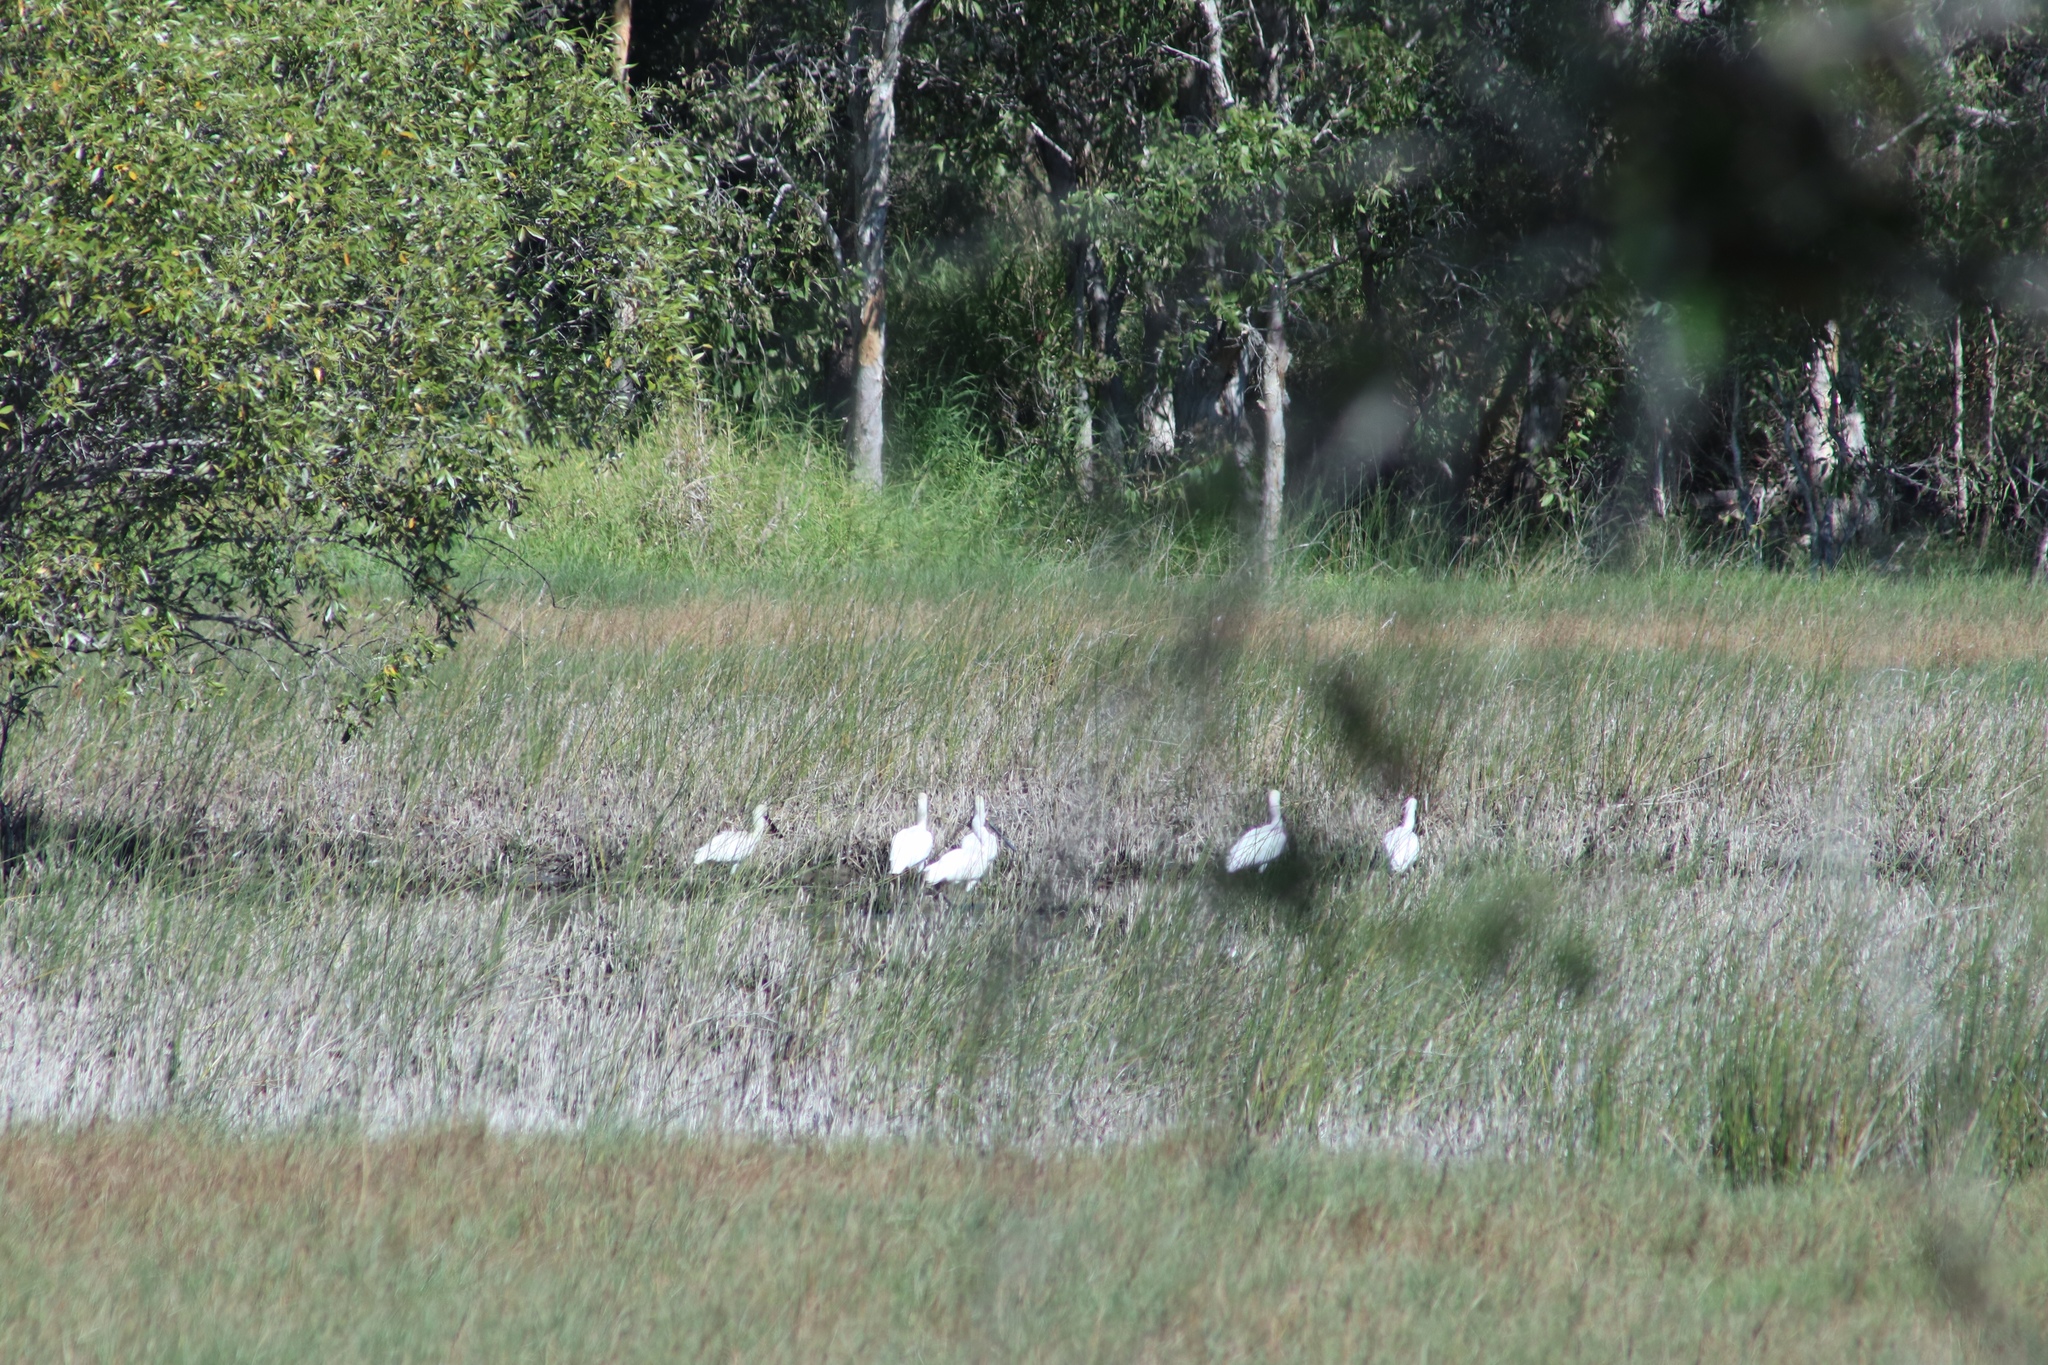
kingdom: Animalia
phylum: Chordata
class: Aves
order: Pelecaniformes
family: Threskiornithidae
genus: Platalea
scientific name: Platalea regia
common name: Royal spoonbill
